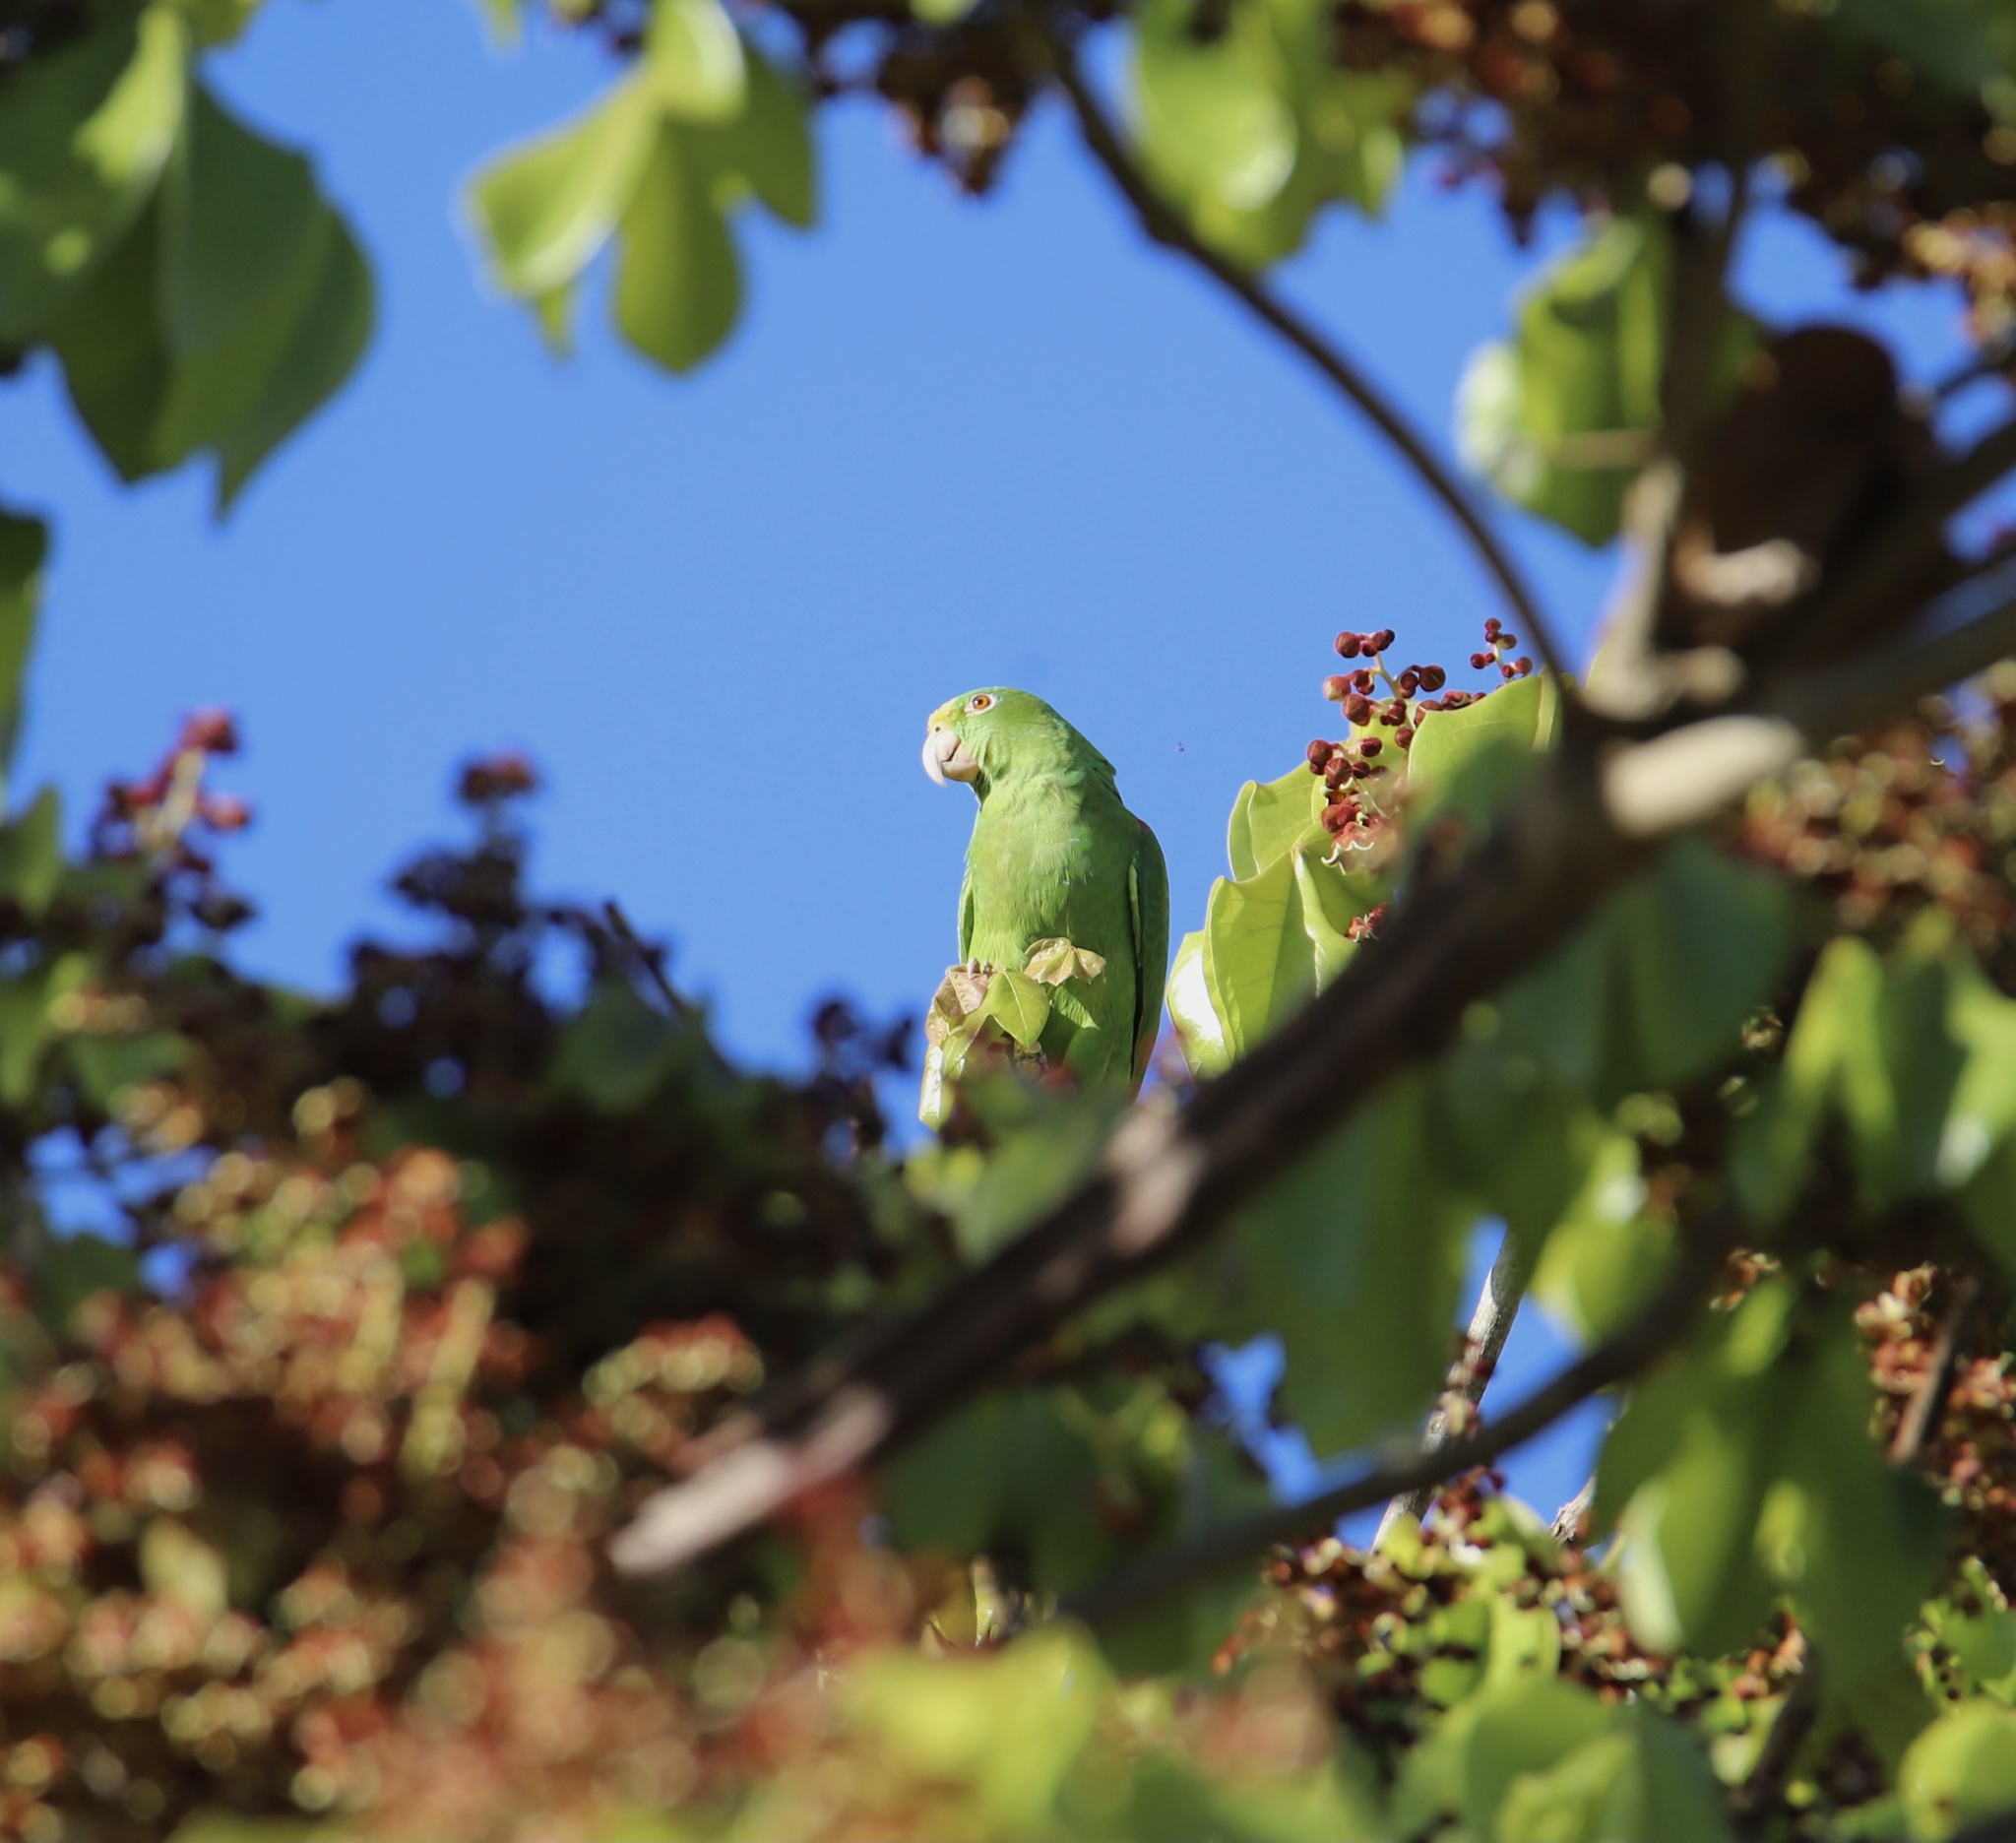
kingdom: Animalia
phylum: Chordata
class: Aves
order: Psittaciformes
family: Psittacidae
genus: Amazona
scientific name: Amazona ochrocephala
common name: Yellow-crowned amazon
